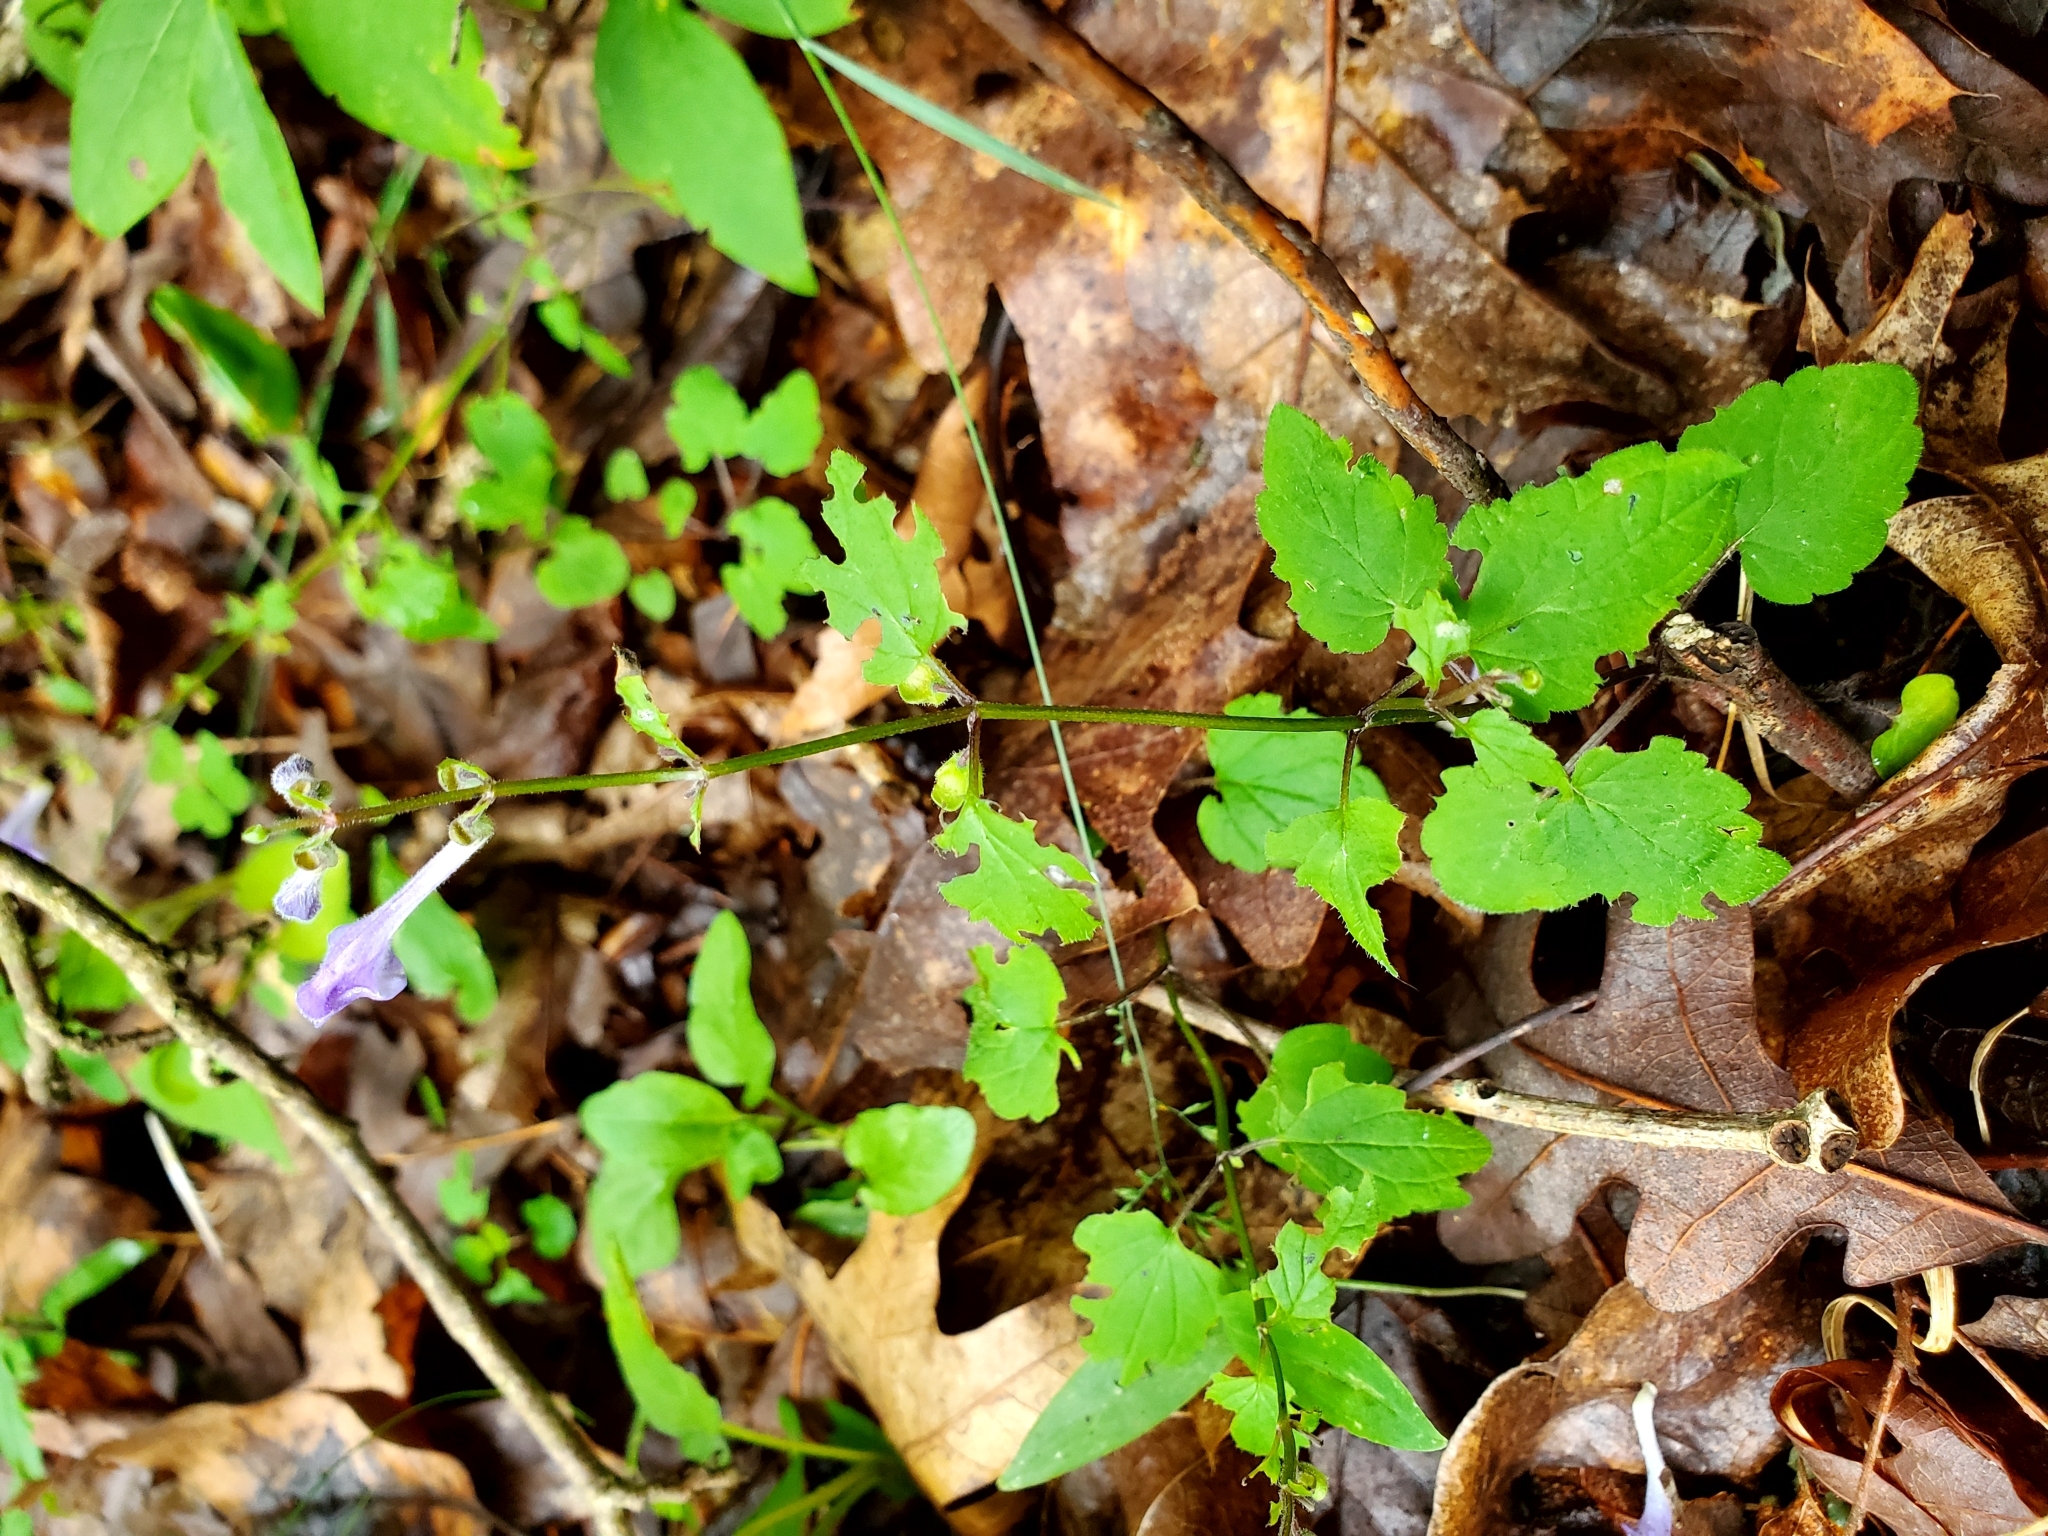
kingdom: Plantae
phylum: Tracheophyta
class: Magnoliopsida
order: Lamiales
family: Lamiaceae
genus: Scutellaria
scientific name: Scutellaria saxatilis
